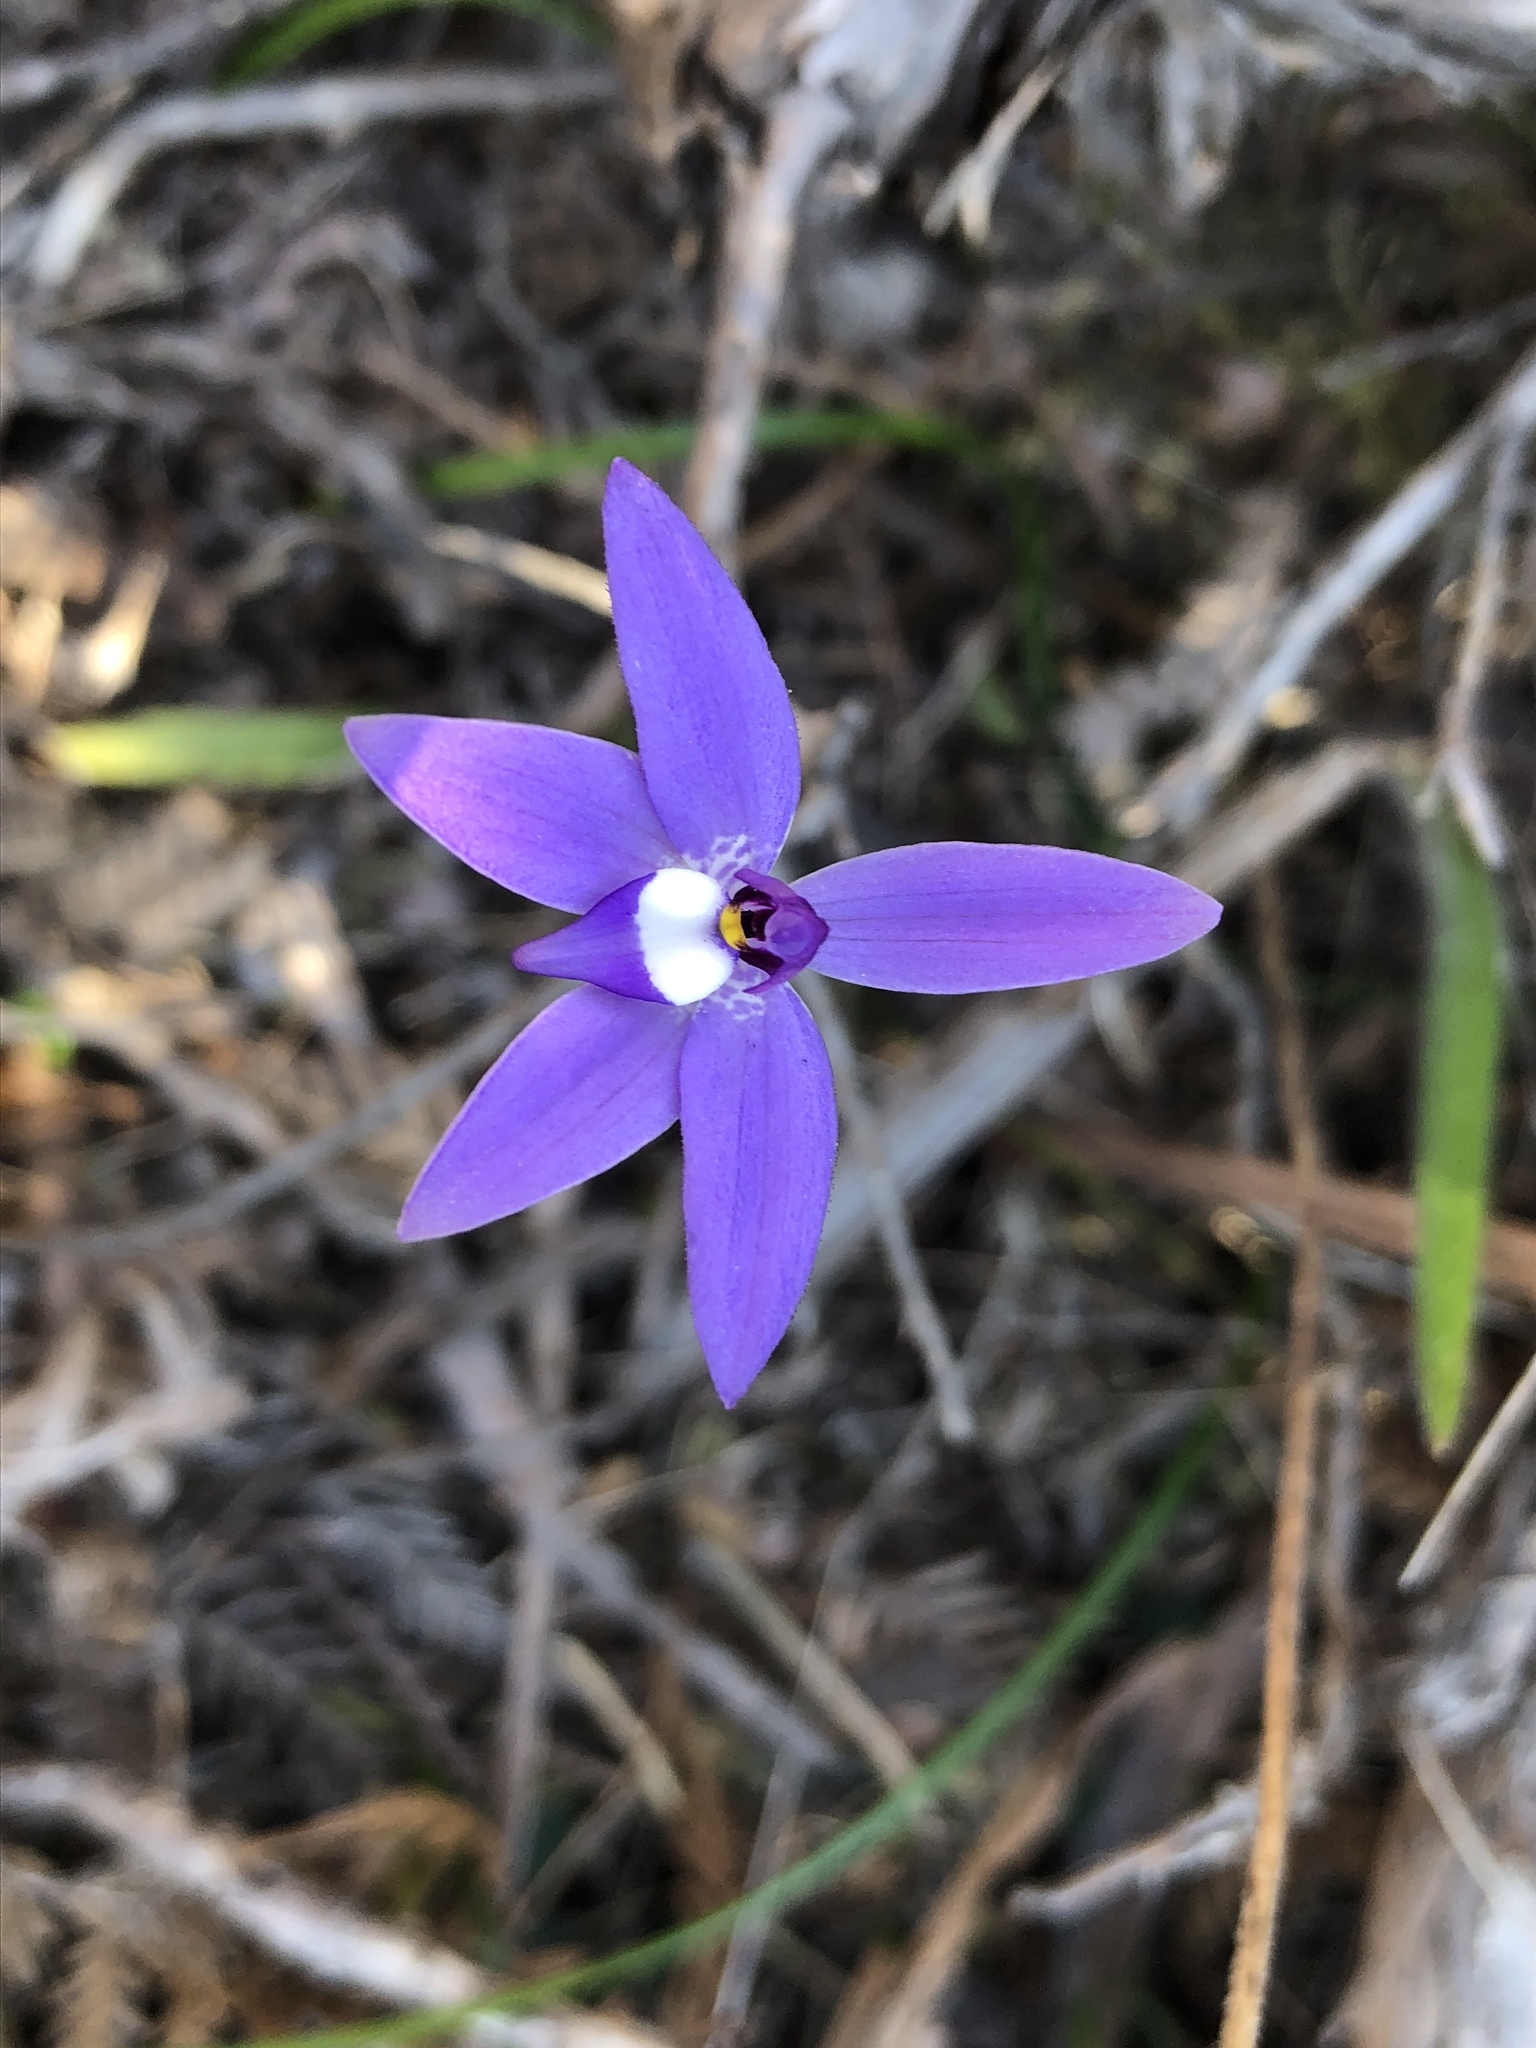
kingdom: Plantae
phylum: Tracheophyta
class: Liliopsida
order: Asparagales
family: Orchidaceae
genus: Caladenia
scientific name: Caladenia major
